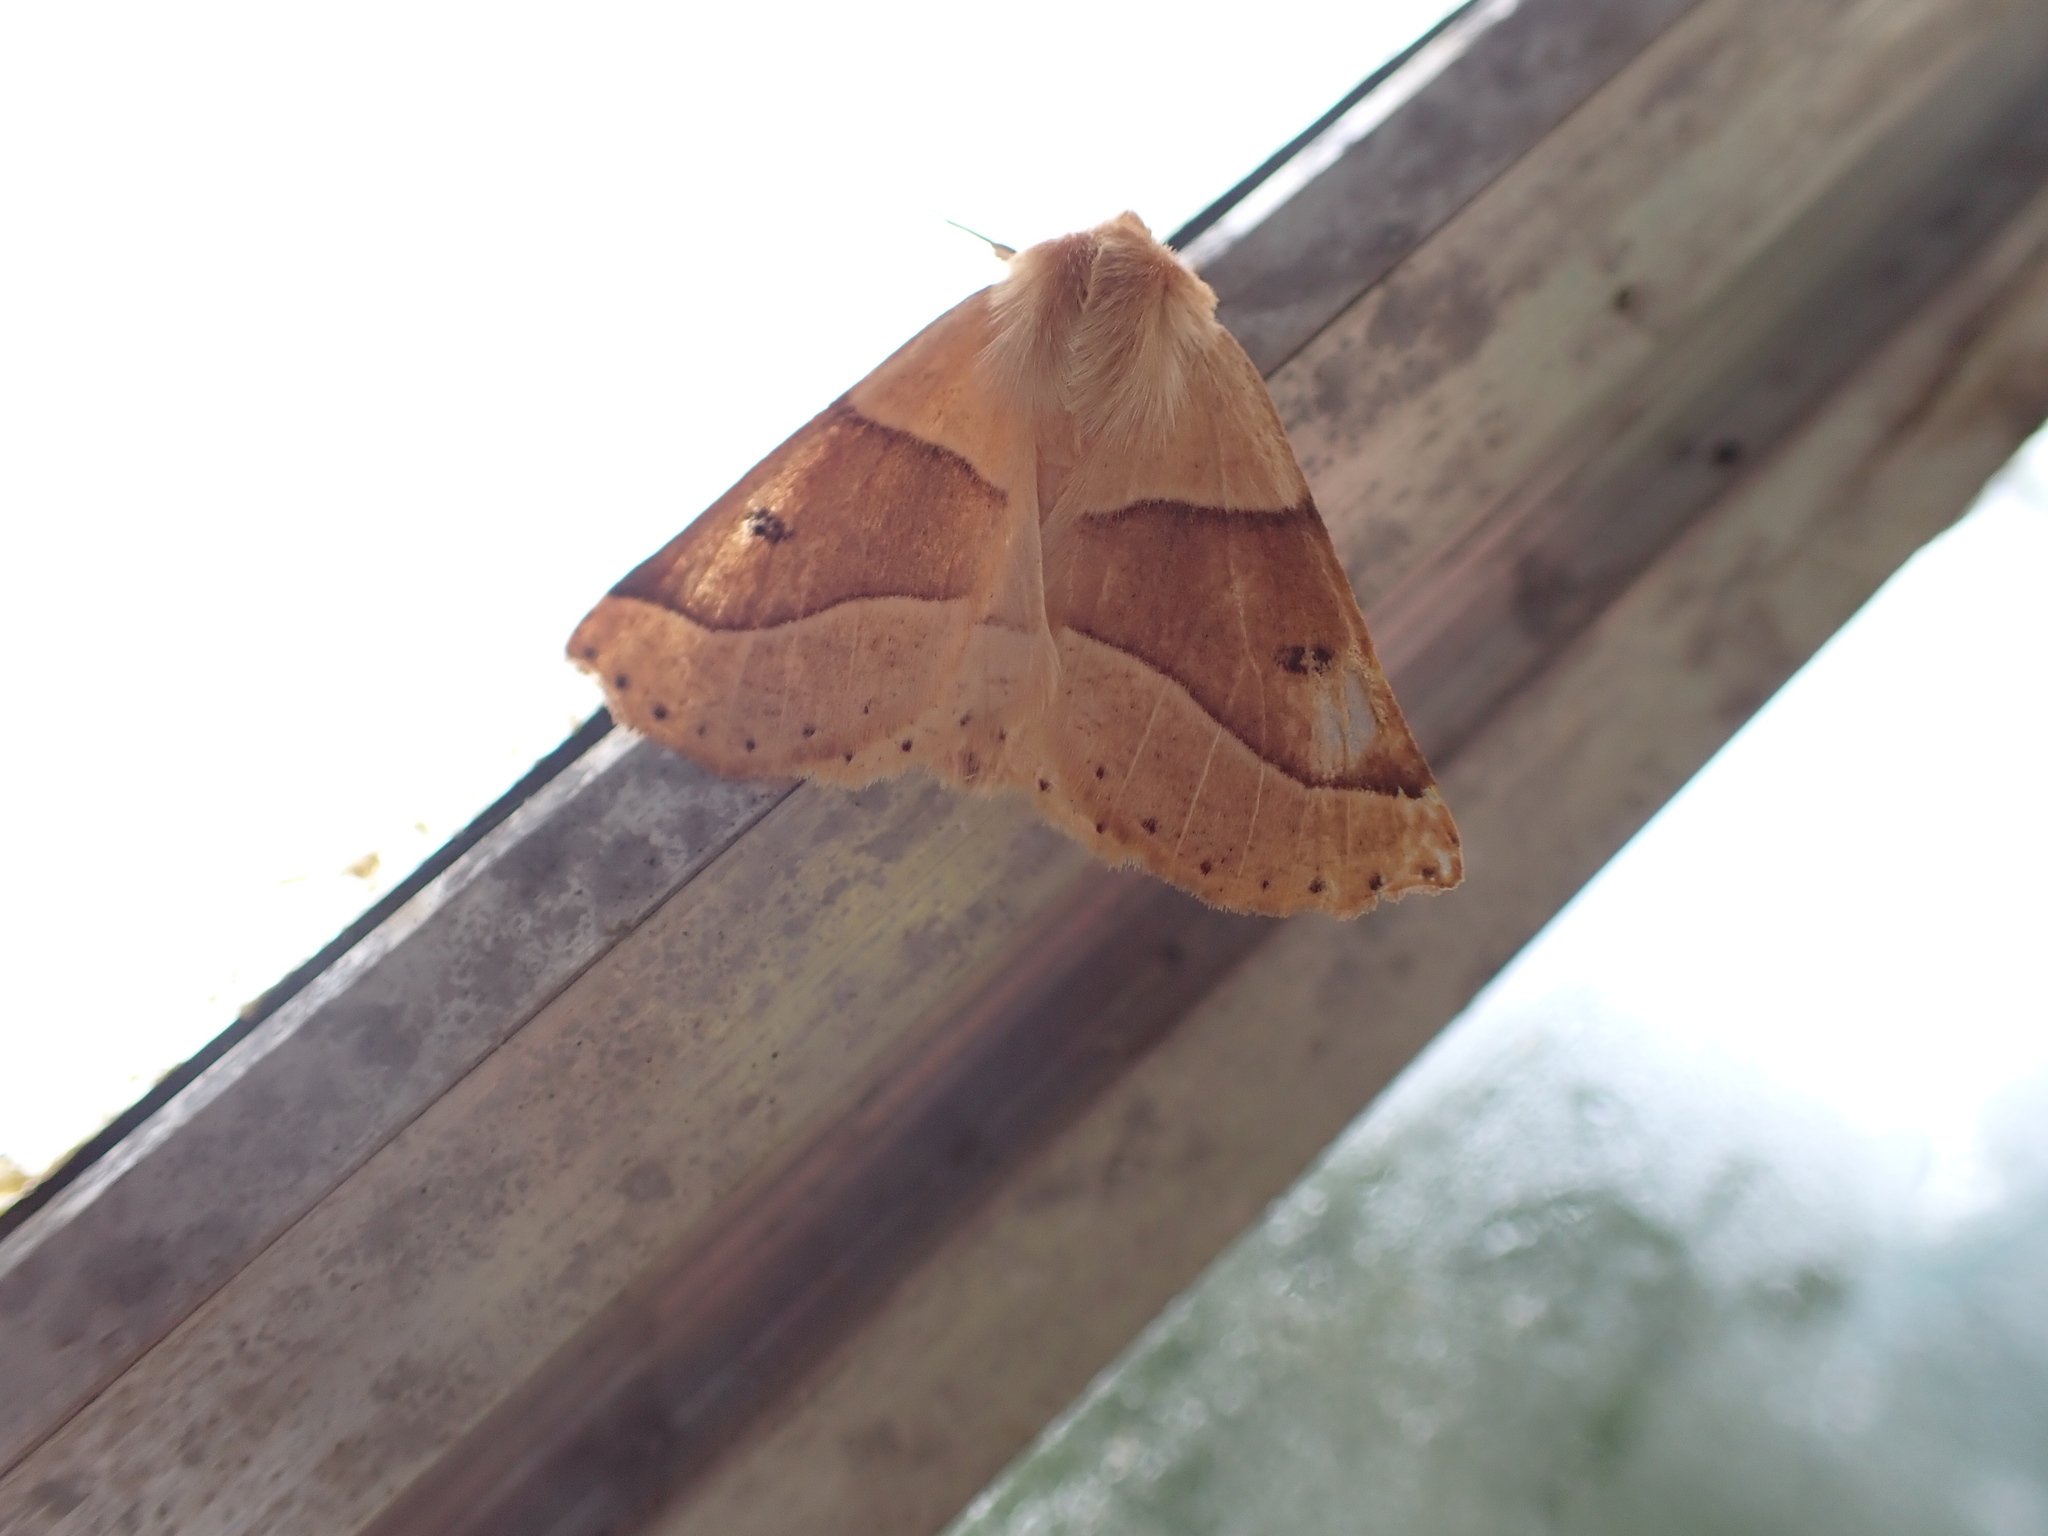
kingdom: Animalia
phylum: Arthropoda
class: Insecta
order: Lepidoptera
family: Geometridae
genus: Crocallis
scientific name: Crocallis elinguaria
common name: Scalloped oak
